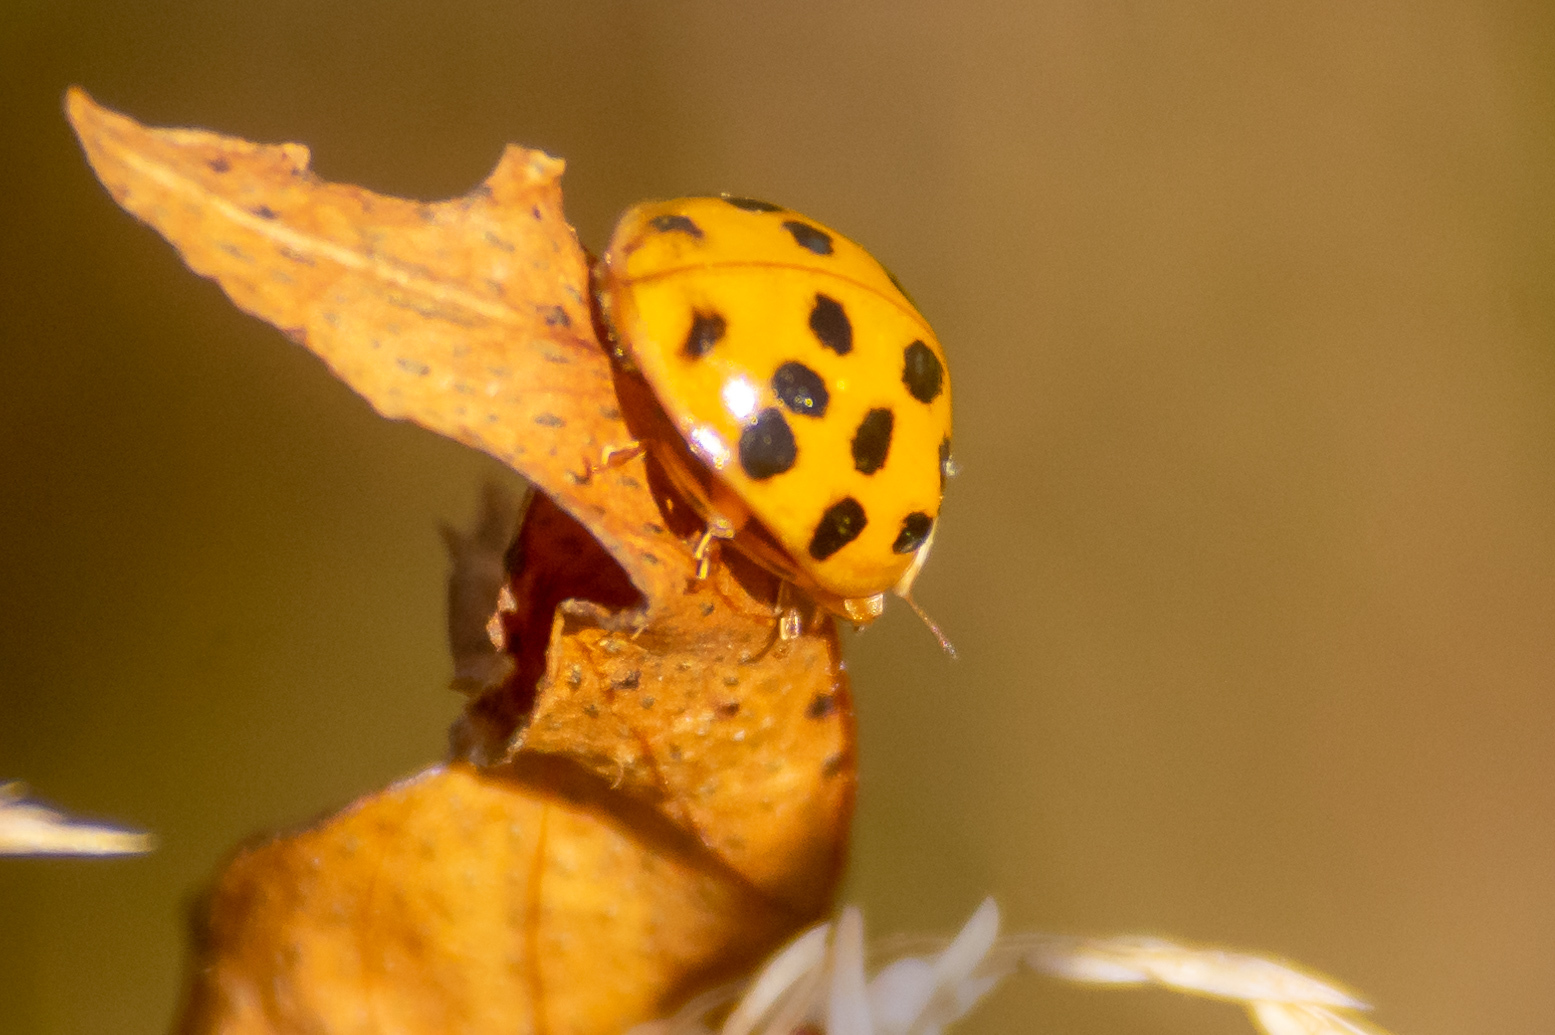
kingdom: Animalia
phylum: Arthropoda
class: Insecta
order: Coleoptera
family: Coccinellidae
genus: Harmonia
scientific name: Harmonia axyridis
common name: Harlequin ladybird
